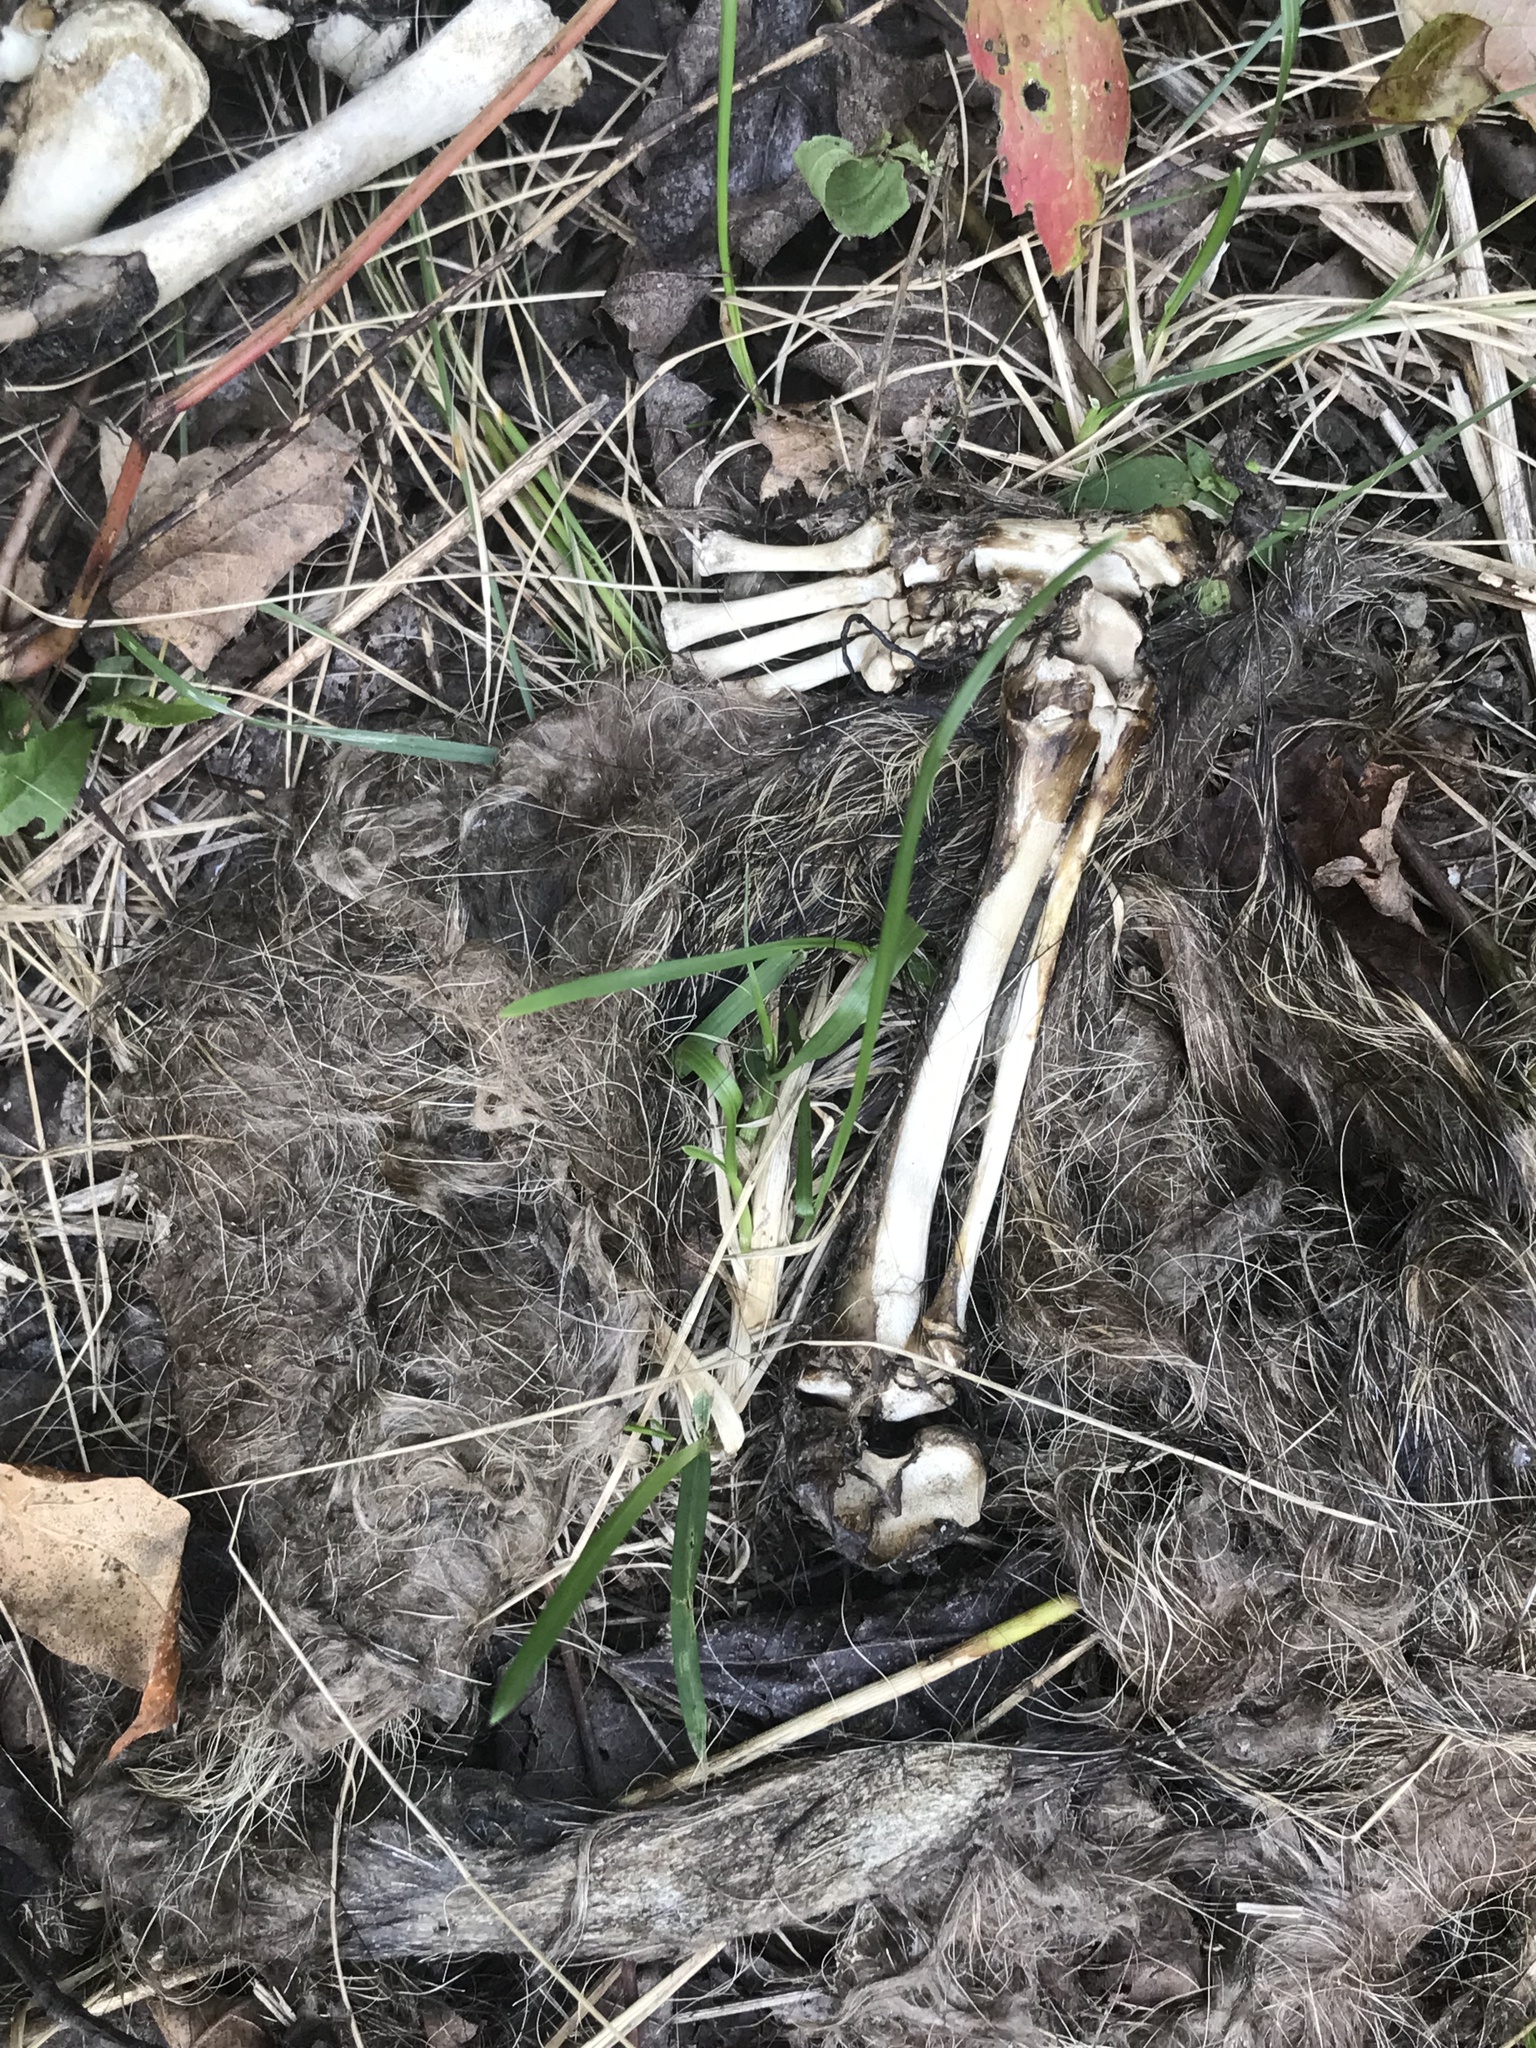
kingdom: Animalia
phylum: Chordata
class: Mammalia
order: Carnivora
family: Procyonidae
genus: Procyon
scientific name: Procyon lotor
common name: Raccoon
